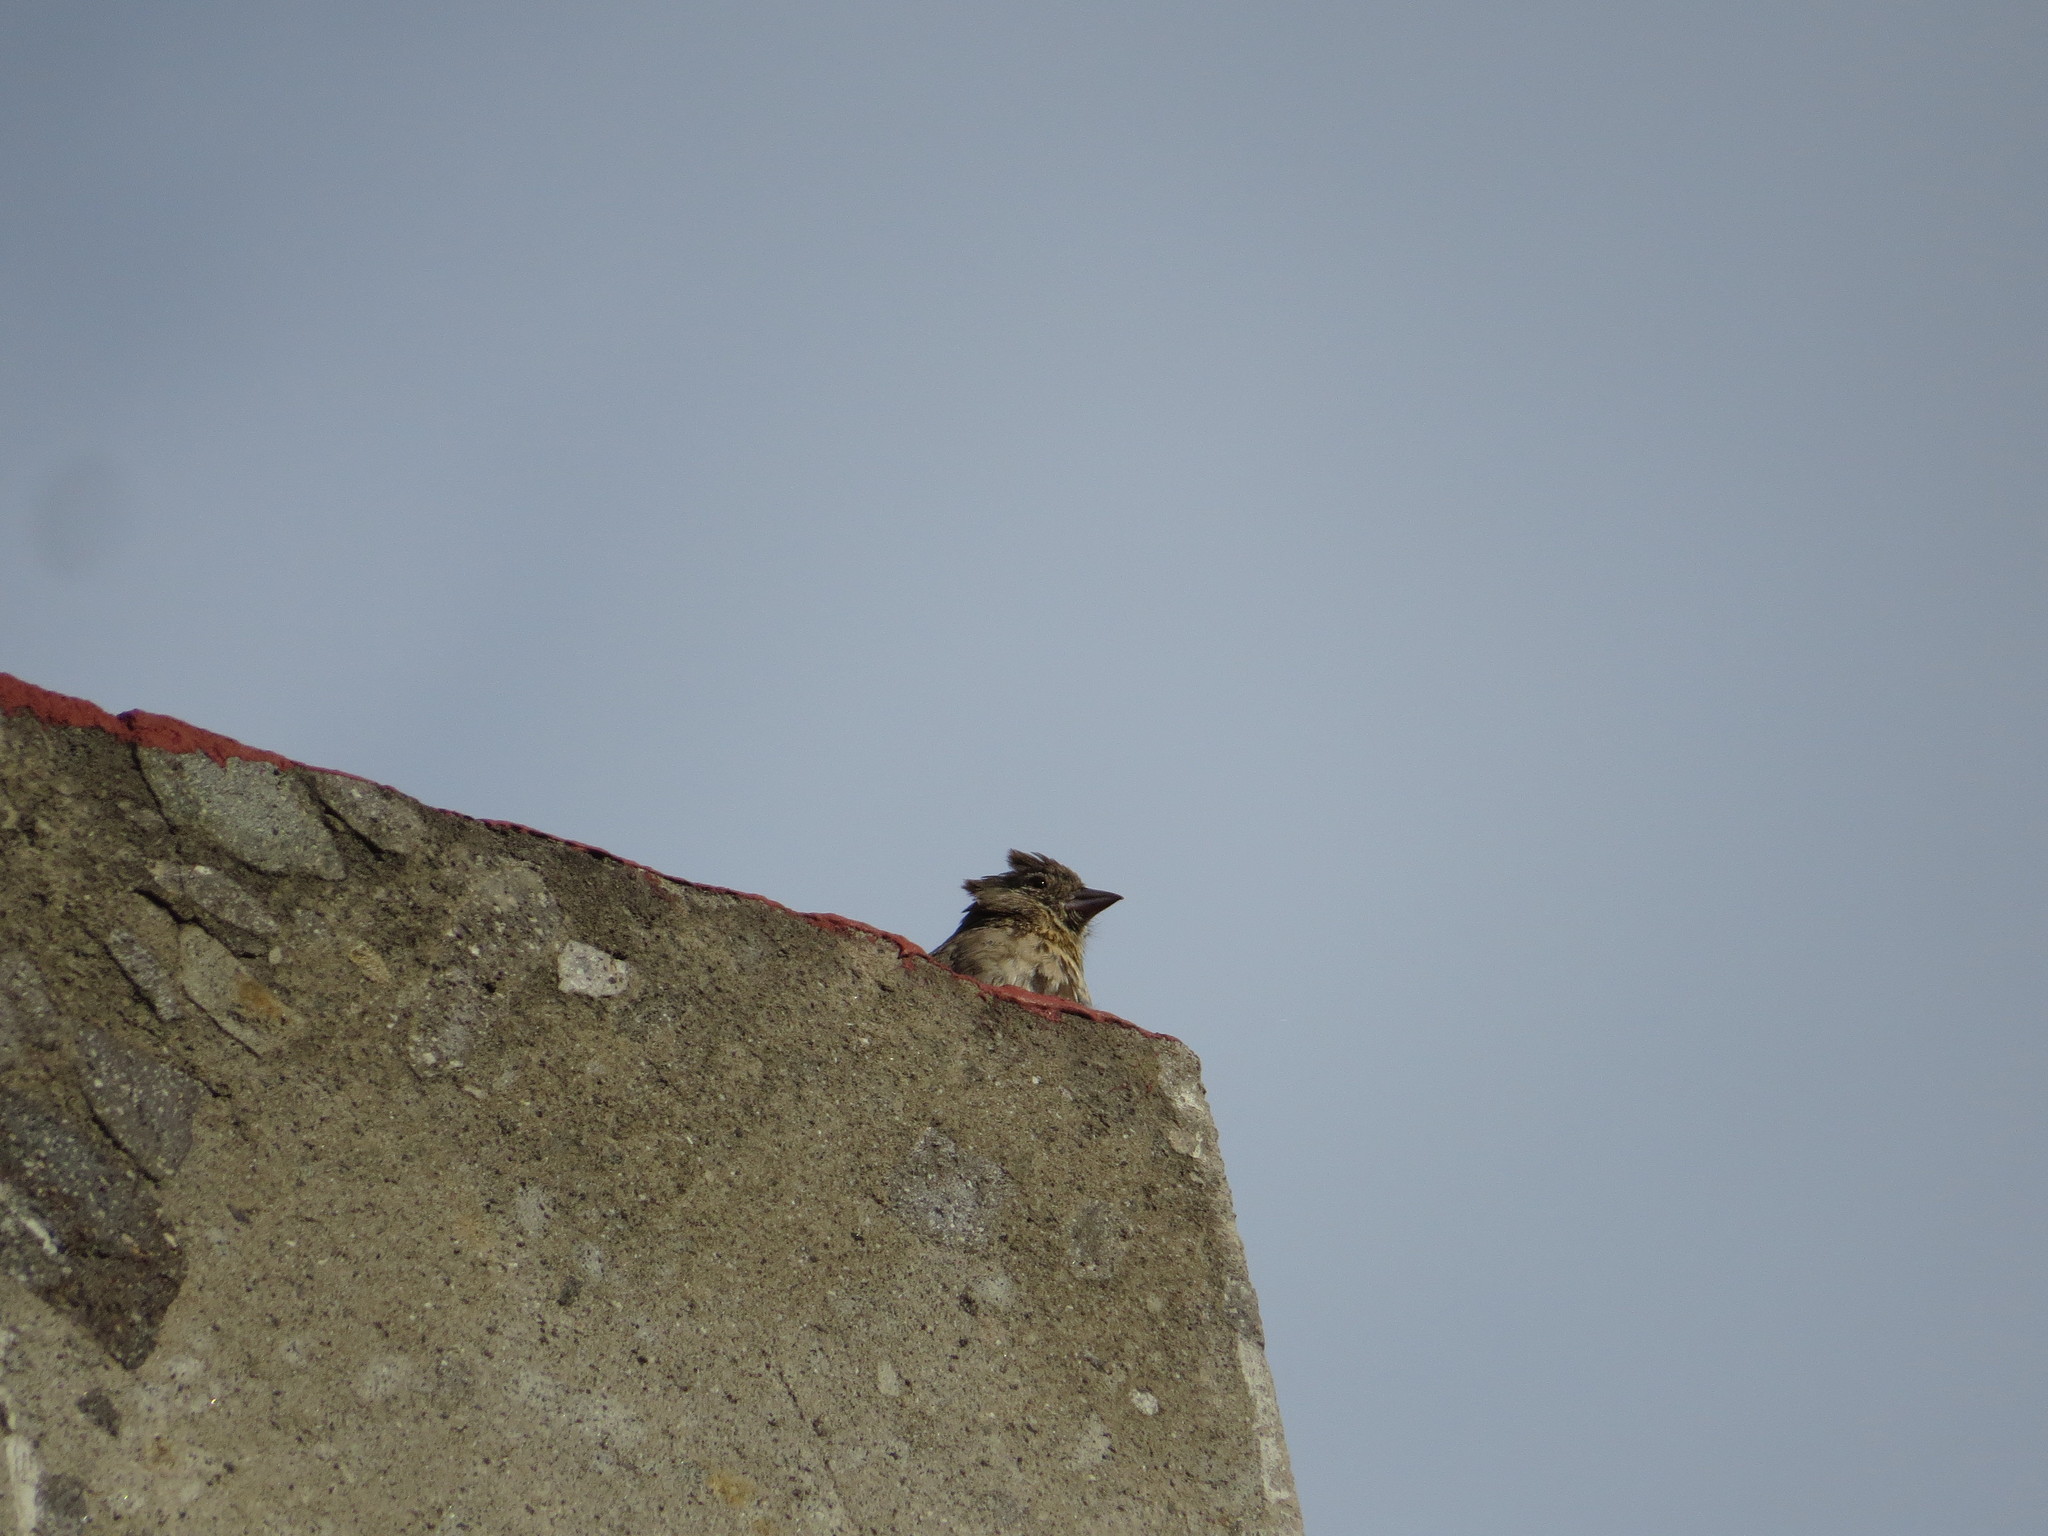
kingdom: Animalia
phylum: Chordata
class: Aves
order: Passeriformes
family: Passerellidae
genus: Melozone
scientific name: Melozone fusca
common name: Canyon towhee
